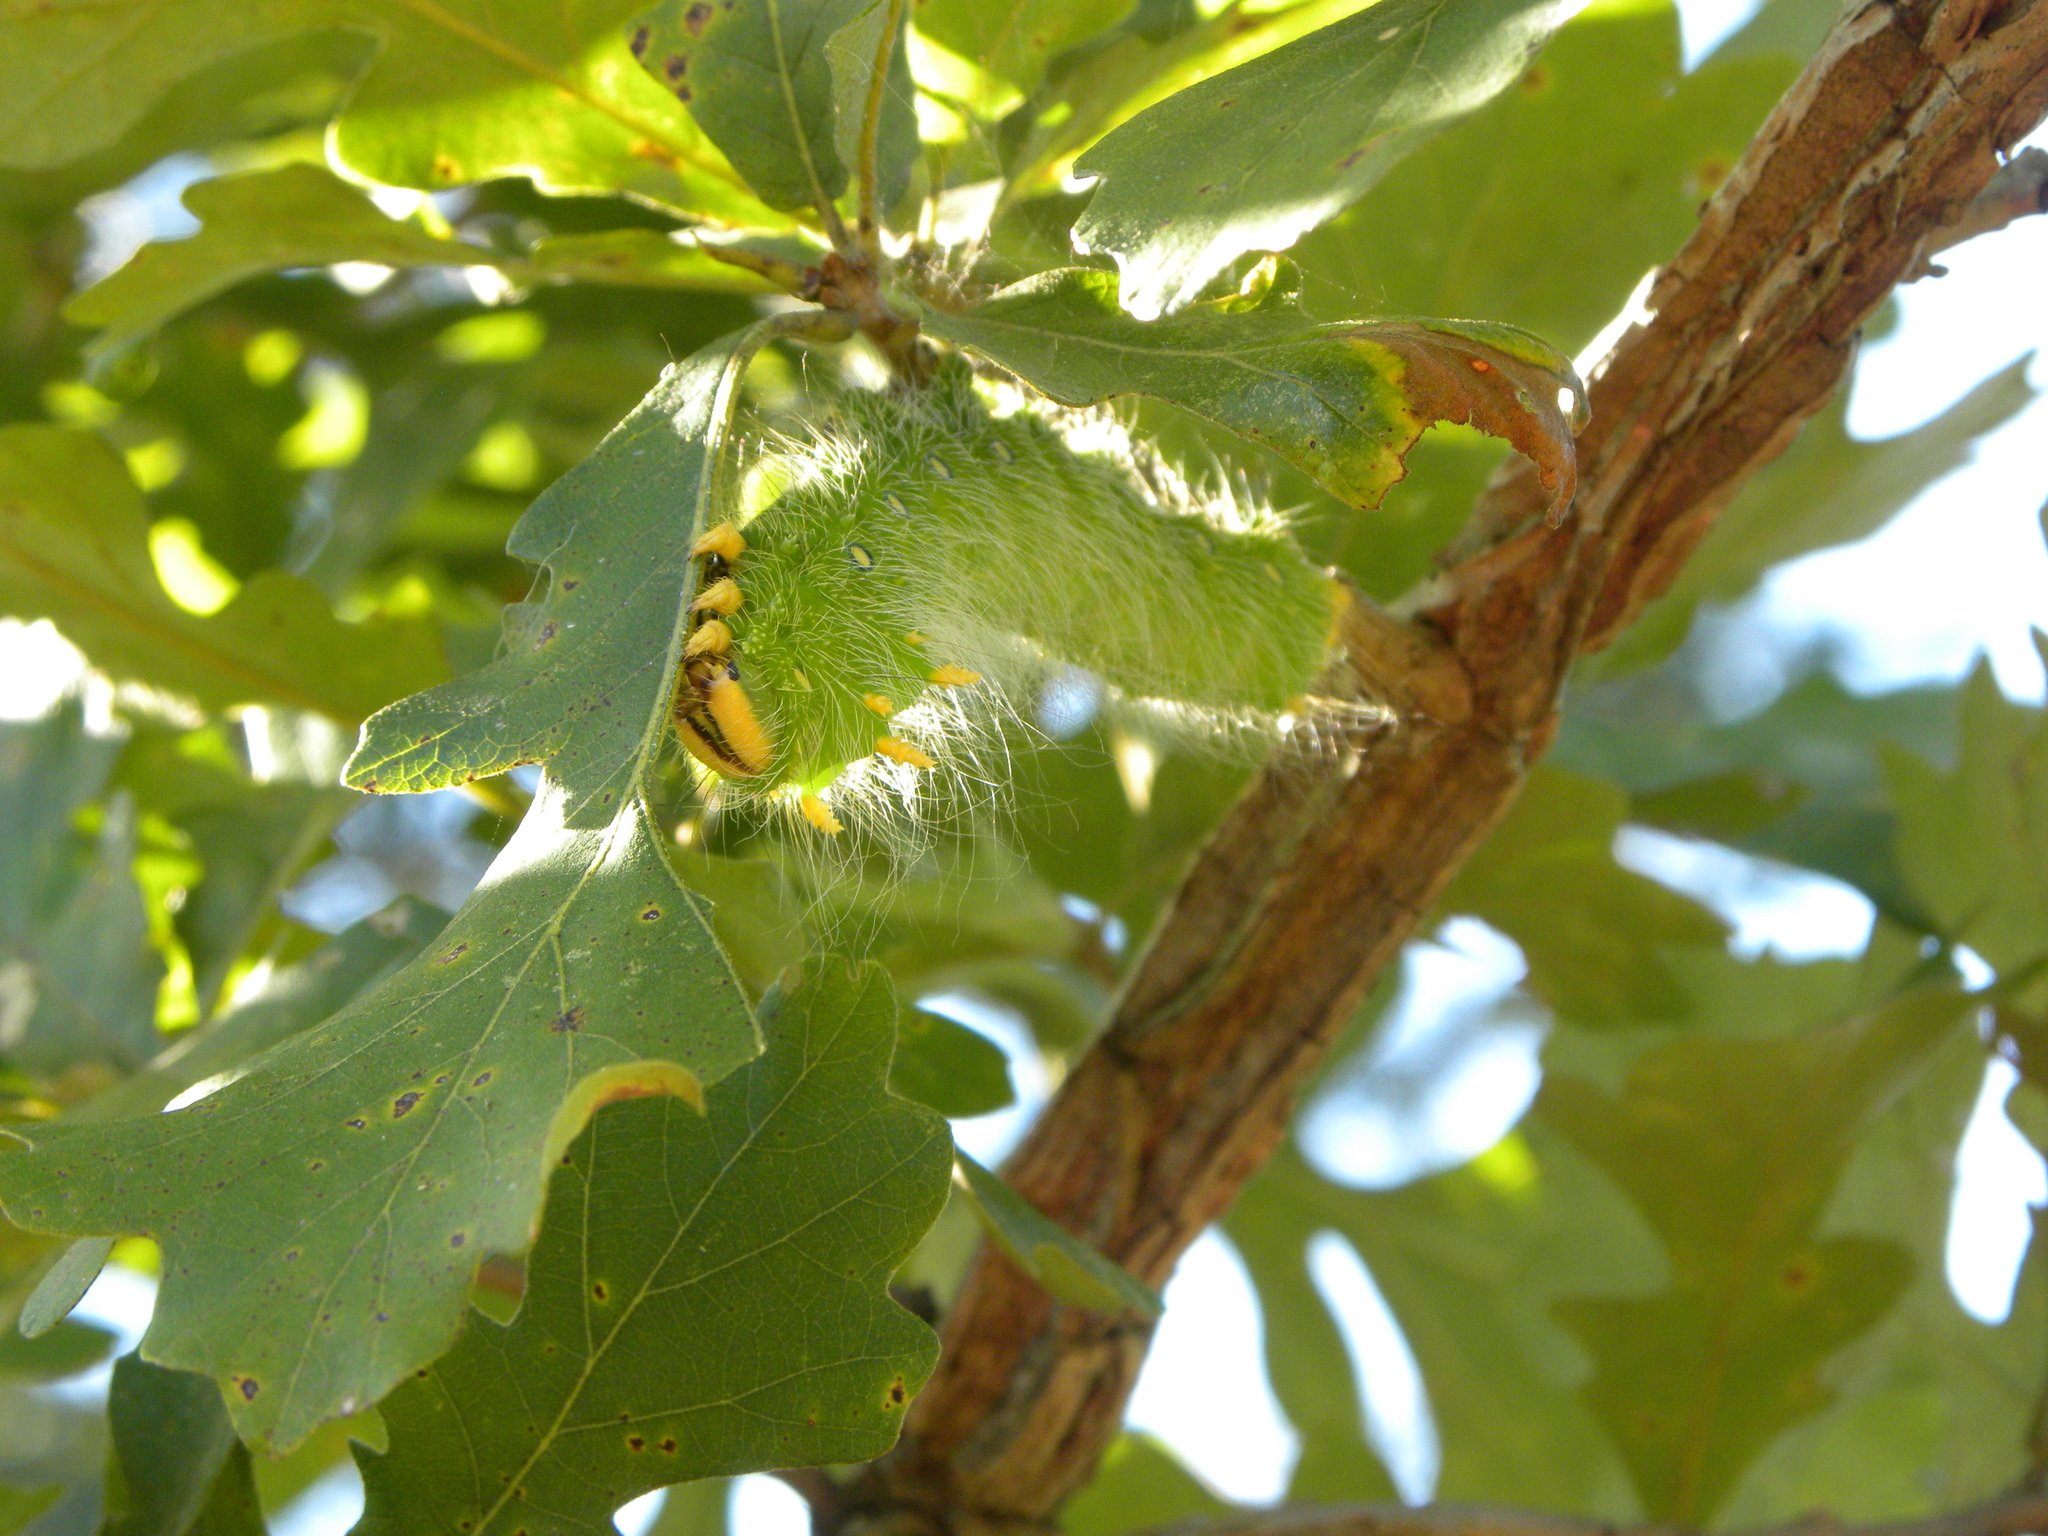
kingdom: Animalia
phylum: Arthropoda
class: Insecta
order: Lepidoptera
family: Saturniidae
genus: Eacles
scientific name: Eacles imperialis
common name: Imperial moth
